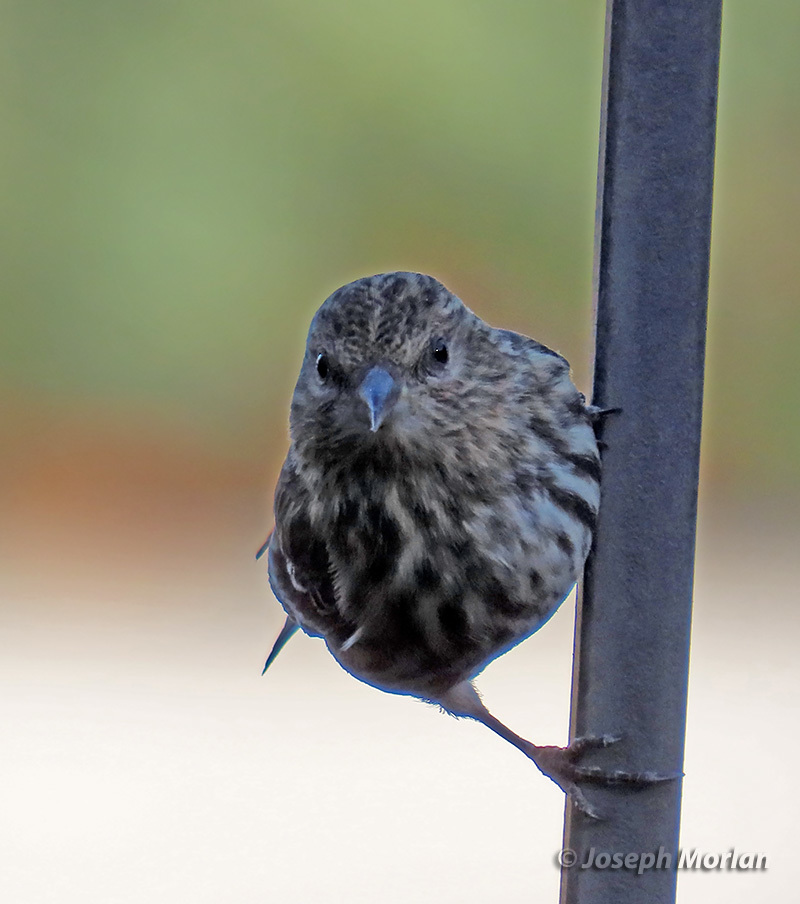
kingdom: Animalia
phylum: Chordata
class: Aves
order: Passeriformes
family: Fringillidae
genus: Spinus
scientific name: Spinus pinus
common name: Pine siskin
